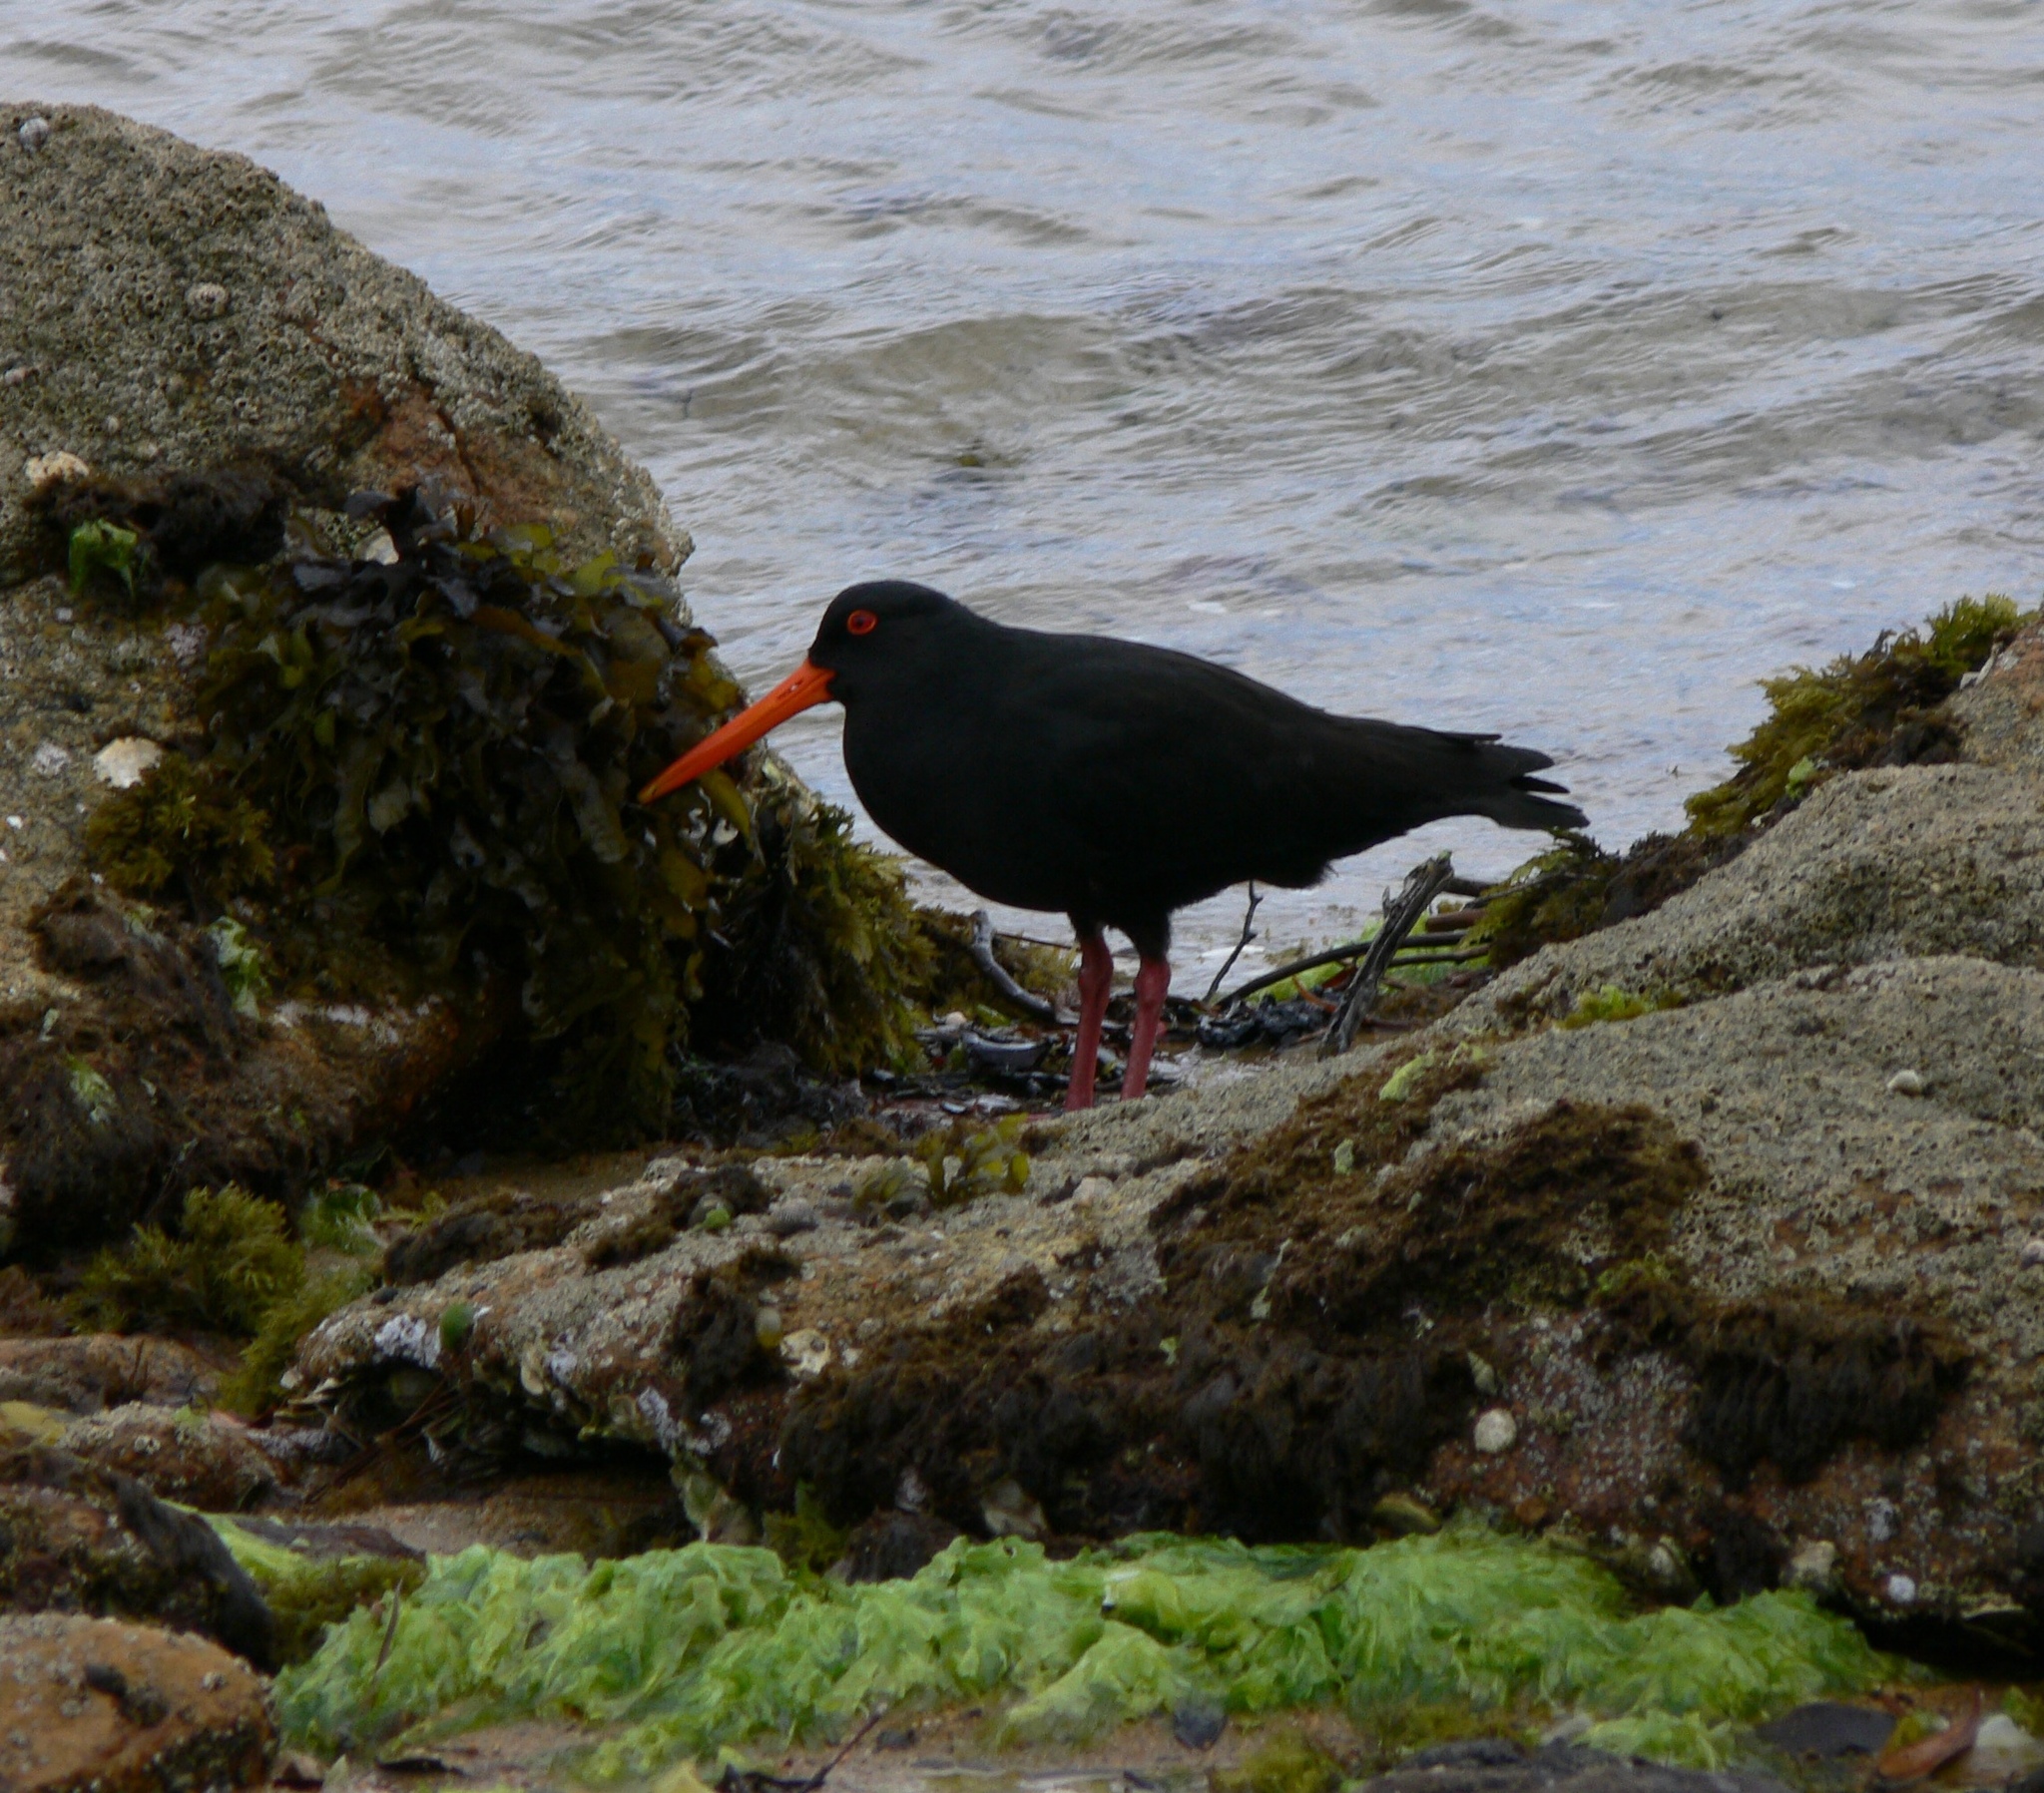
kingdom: Animalia
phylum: Chordata
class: Aves
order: Charadriiformes
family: Haematopodidae
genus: Haematopus
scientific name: Haematopus unicolor
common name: Variable oystercatcher
